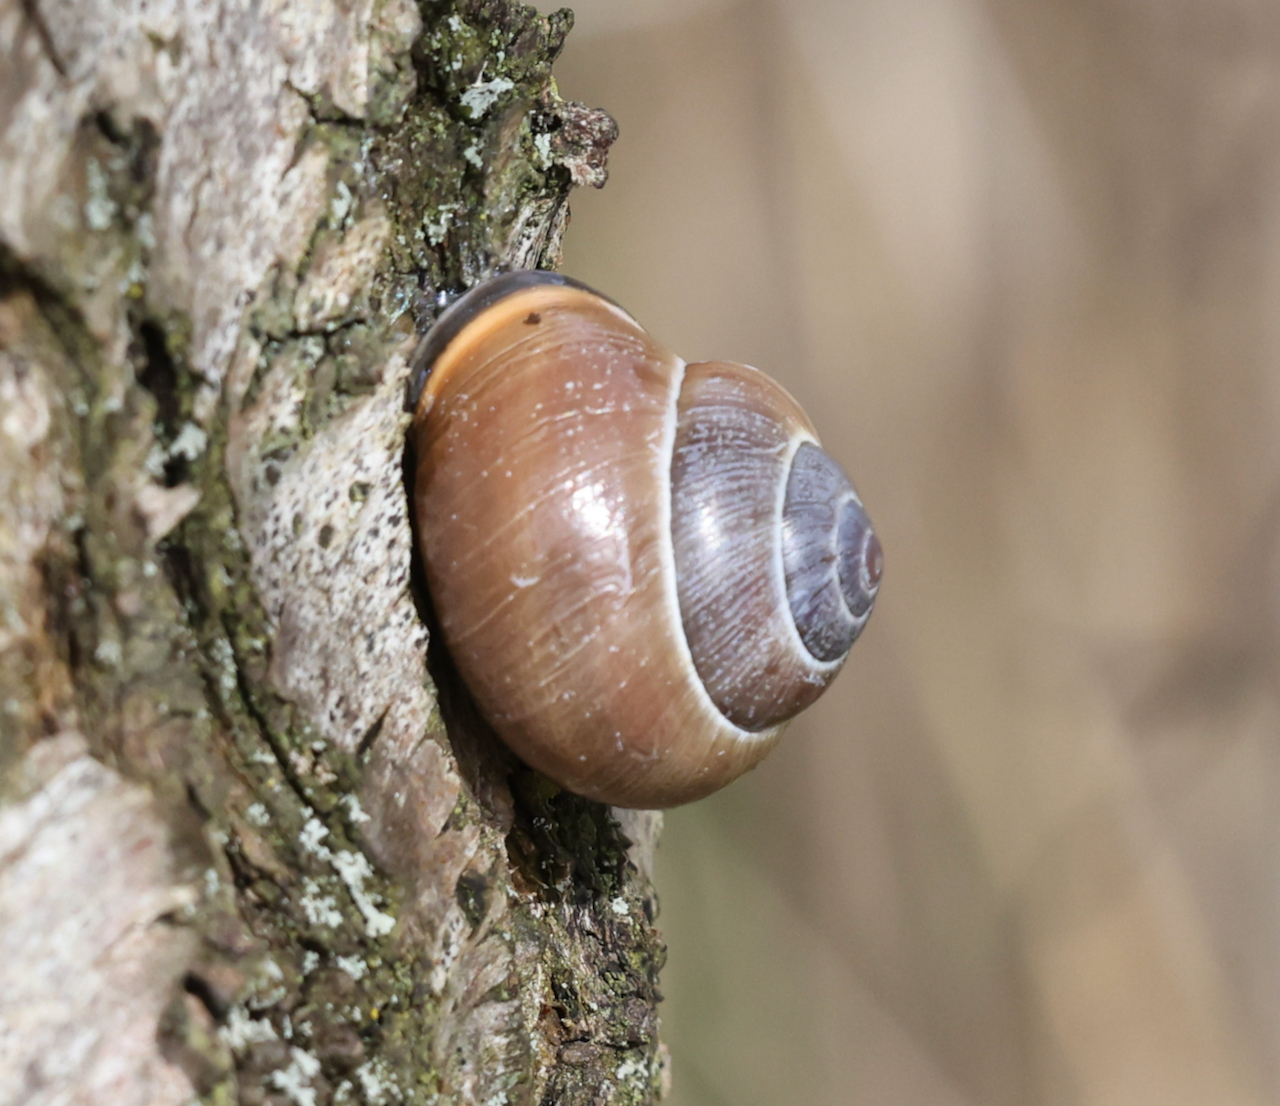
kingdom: Animalia
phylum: Mollusca
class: Gastropoda
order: Stylommatophora
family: Helicidae
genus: Cepaea
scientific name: Cepaea nemoralis
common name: Grovesnail
